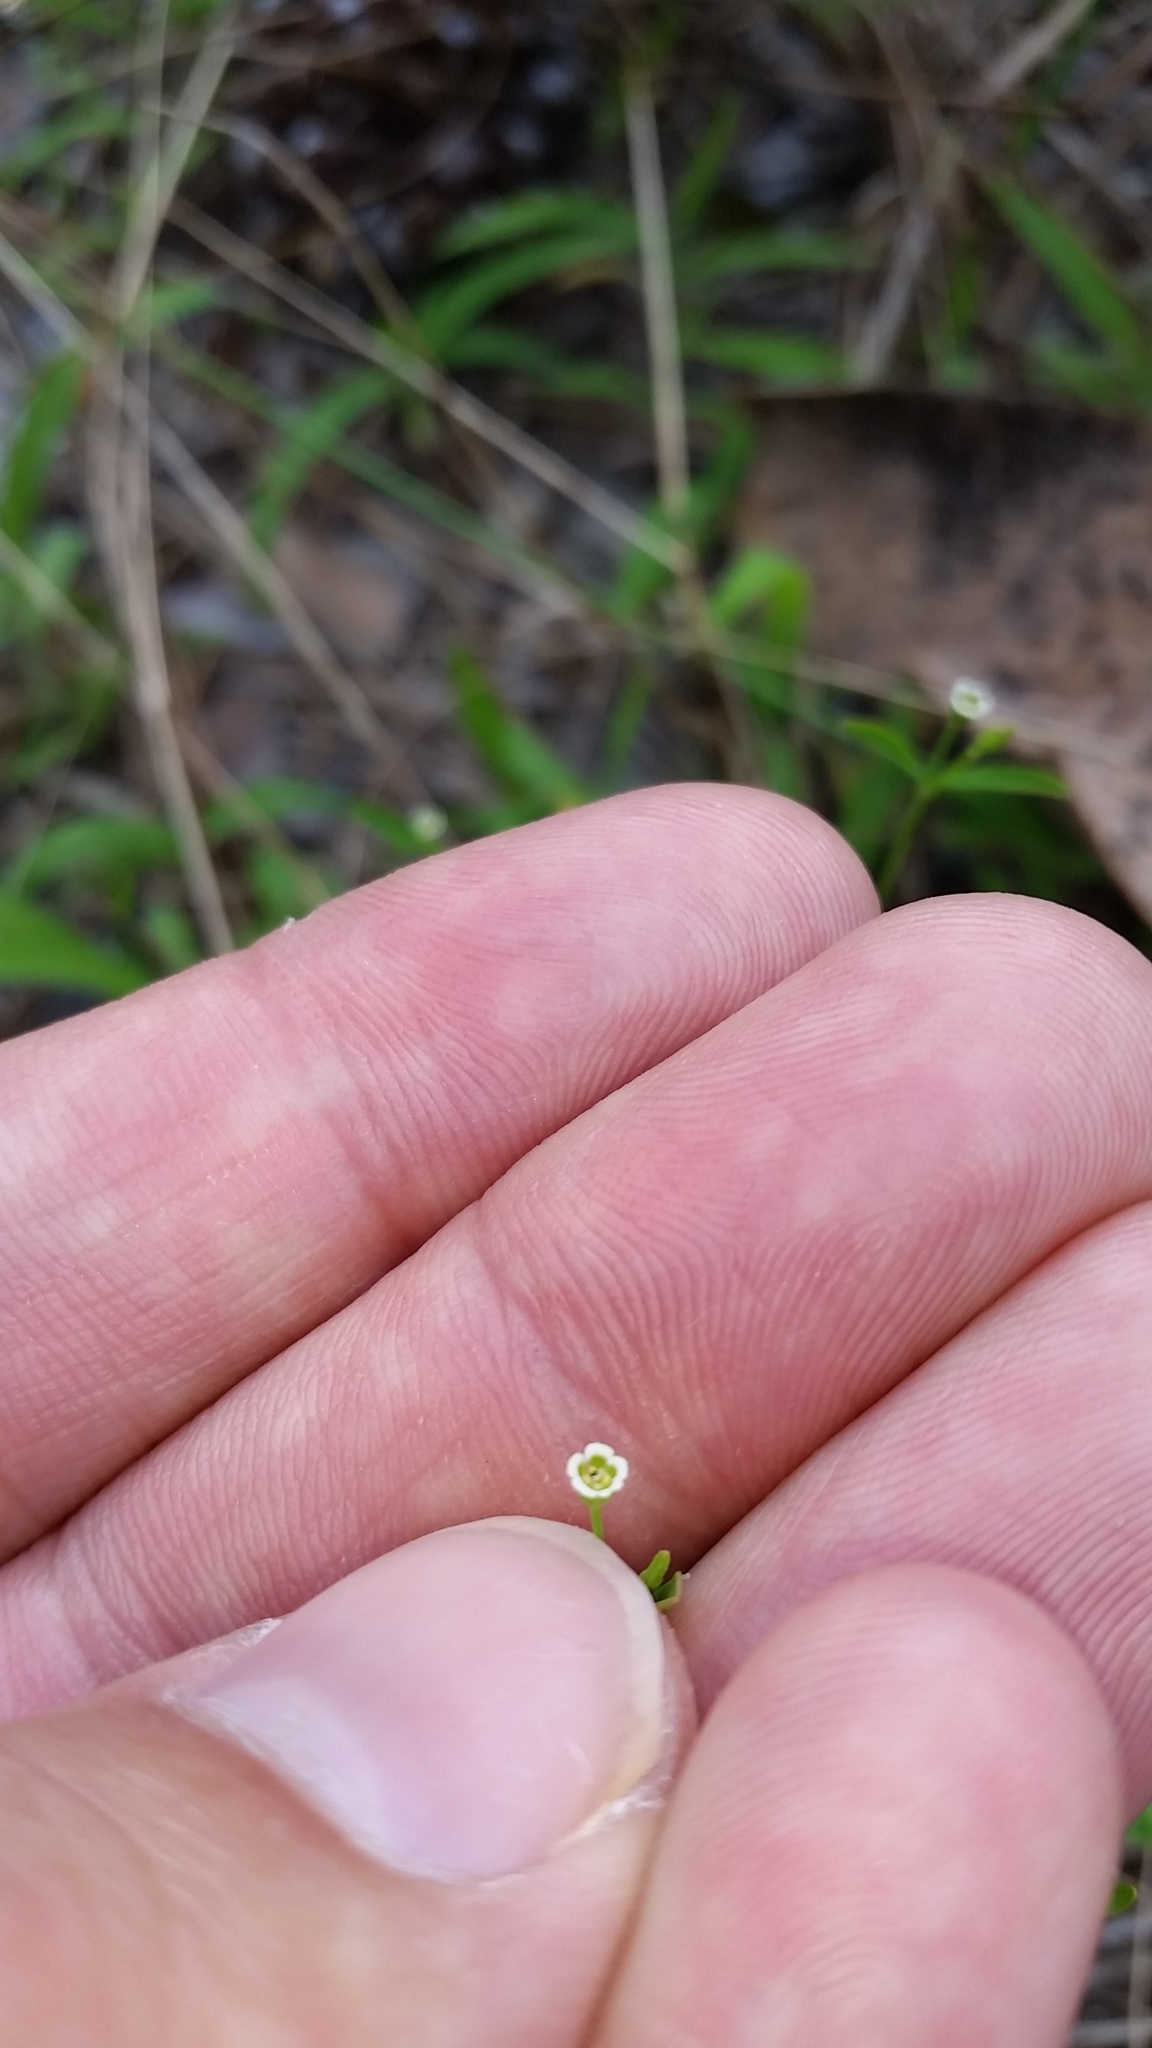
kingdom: Plantae
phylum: Tracheophyta
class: Magnoliopsida
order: Malpighiales
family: Euphorbiaceae
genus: Euphorbia
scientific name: Euphorbia curtisii
